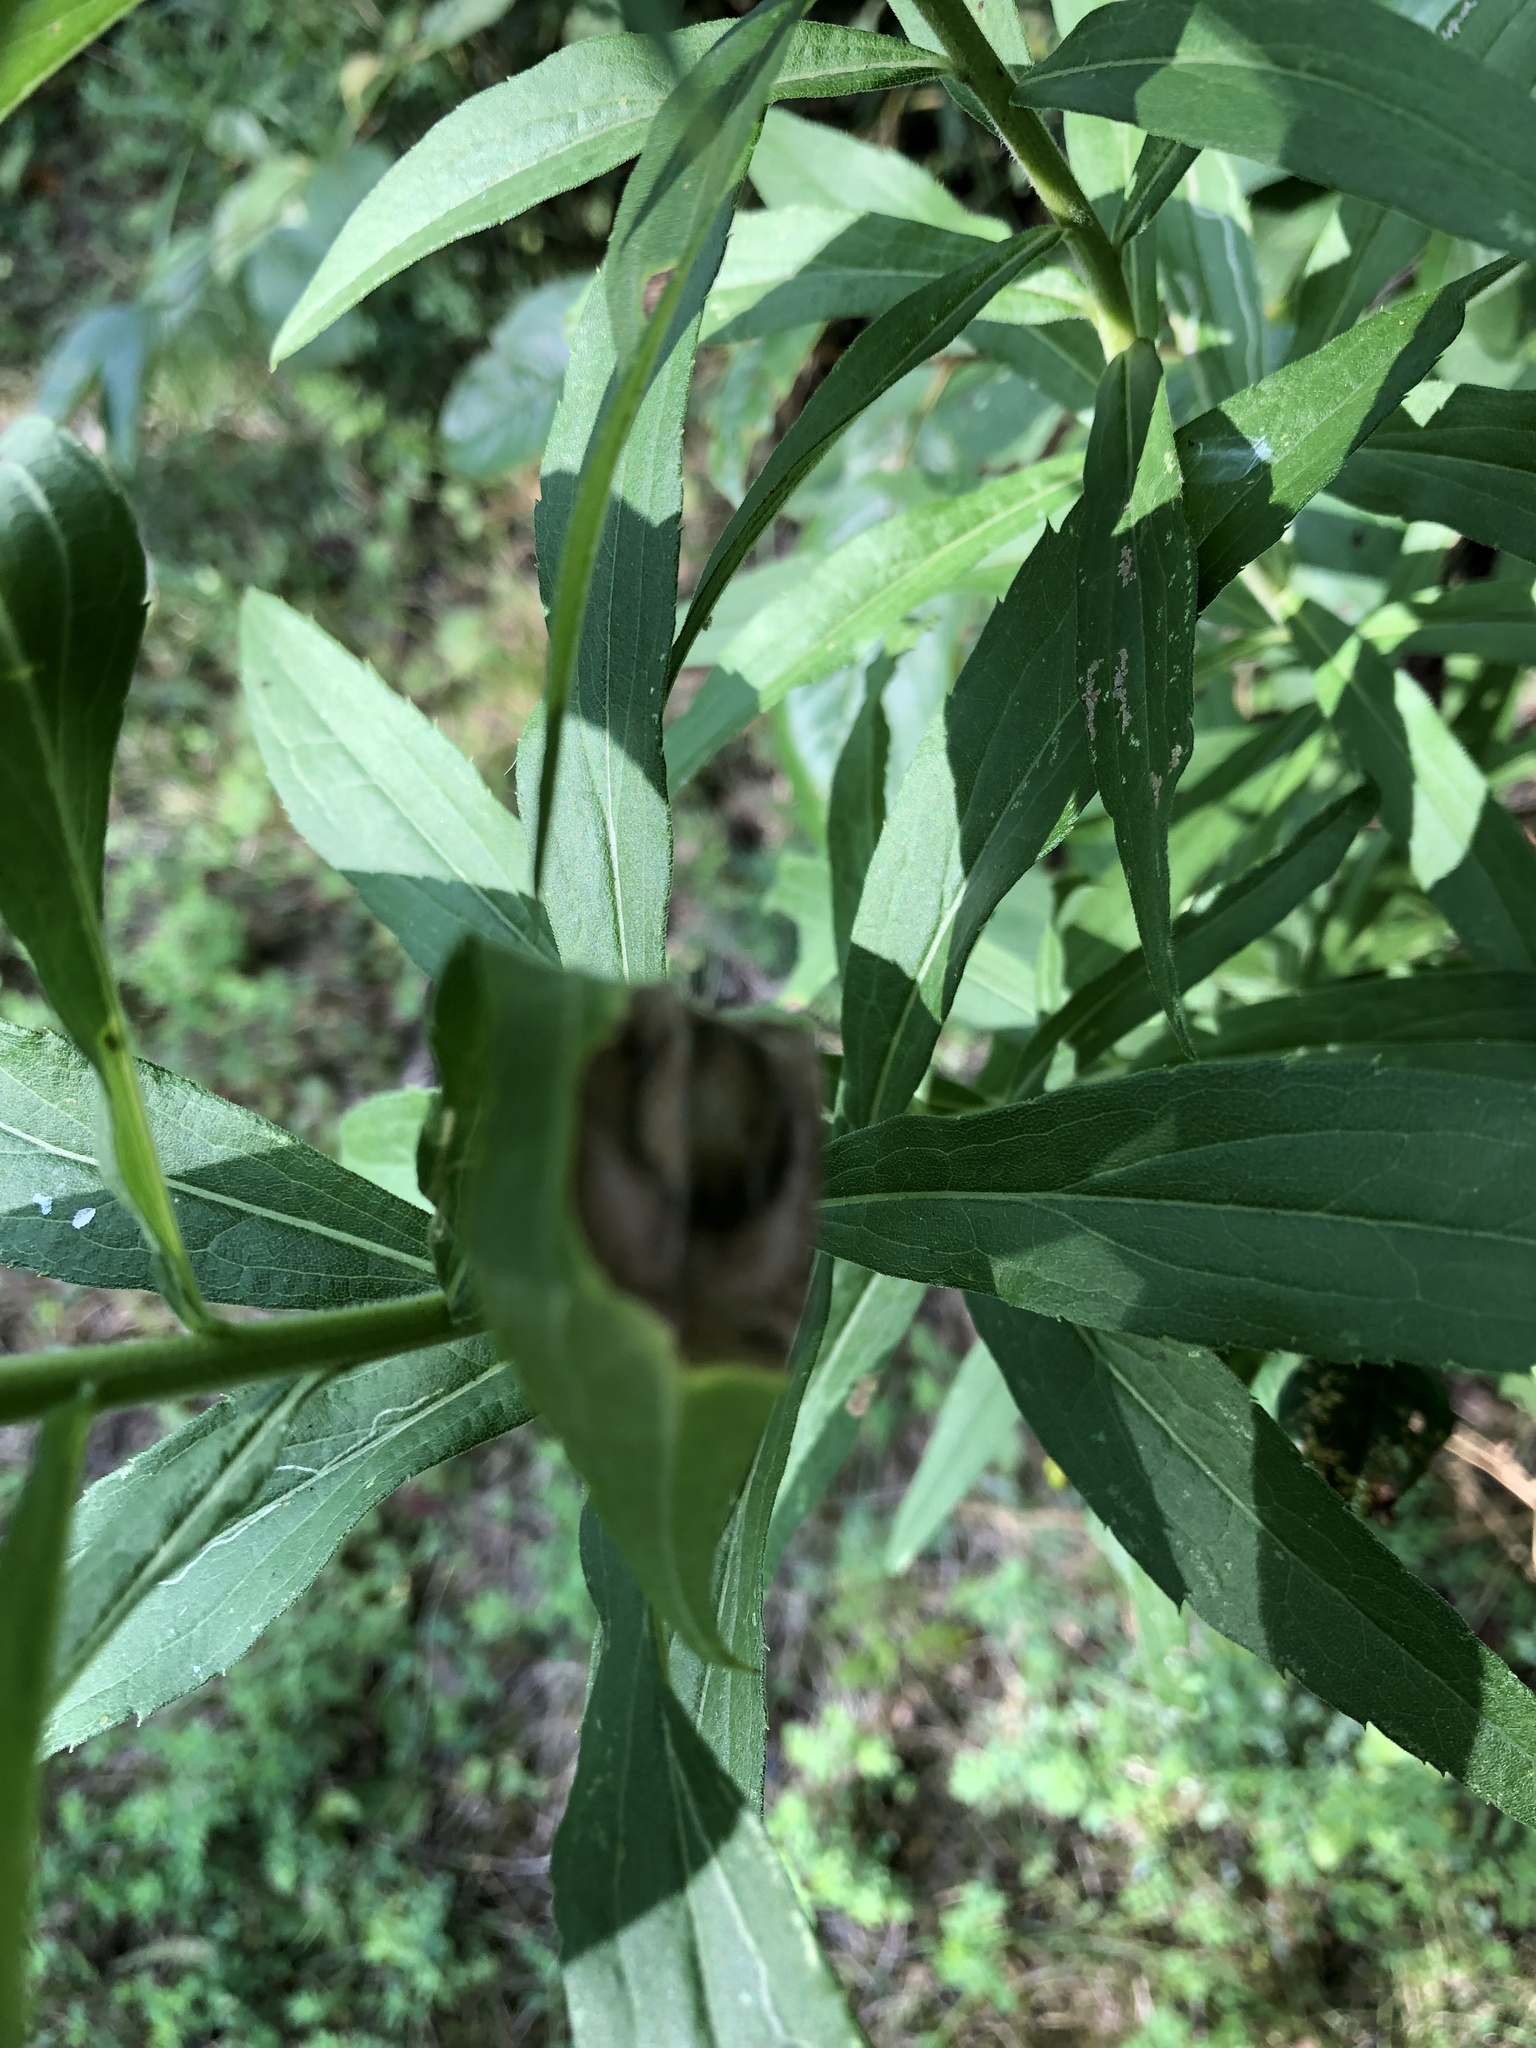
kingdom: Animalia
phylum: Arthropoda
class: Insecta
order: Diptera
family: Cecidomyiidae
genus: Asteromyia
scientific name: Asteromyia carbonifera
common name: Carbonifera goldenrod gall midge
